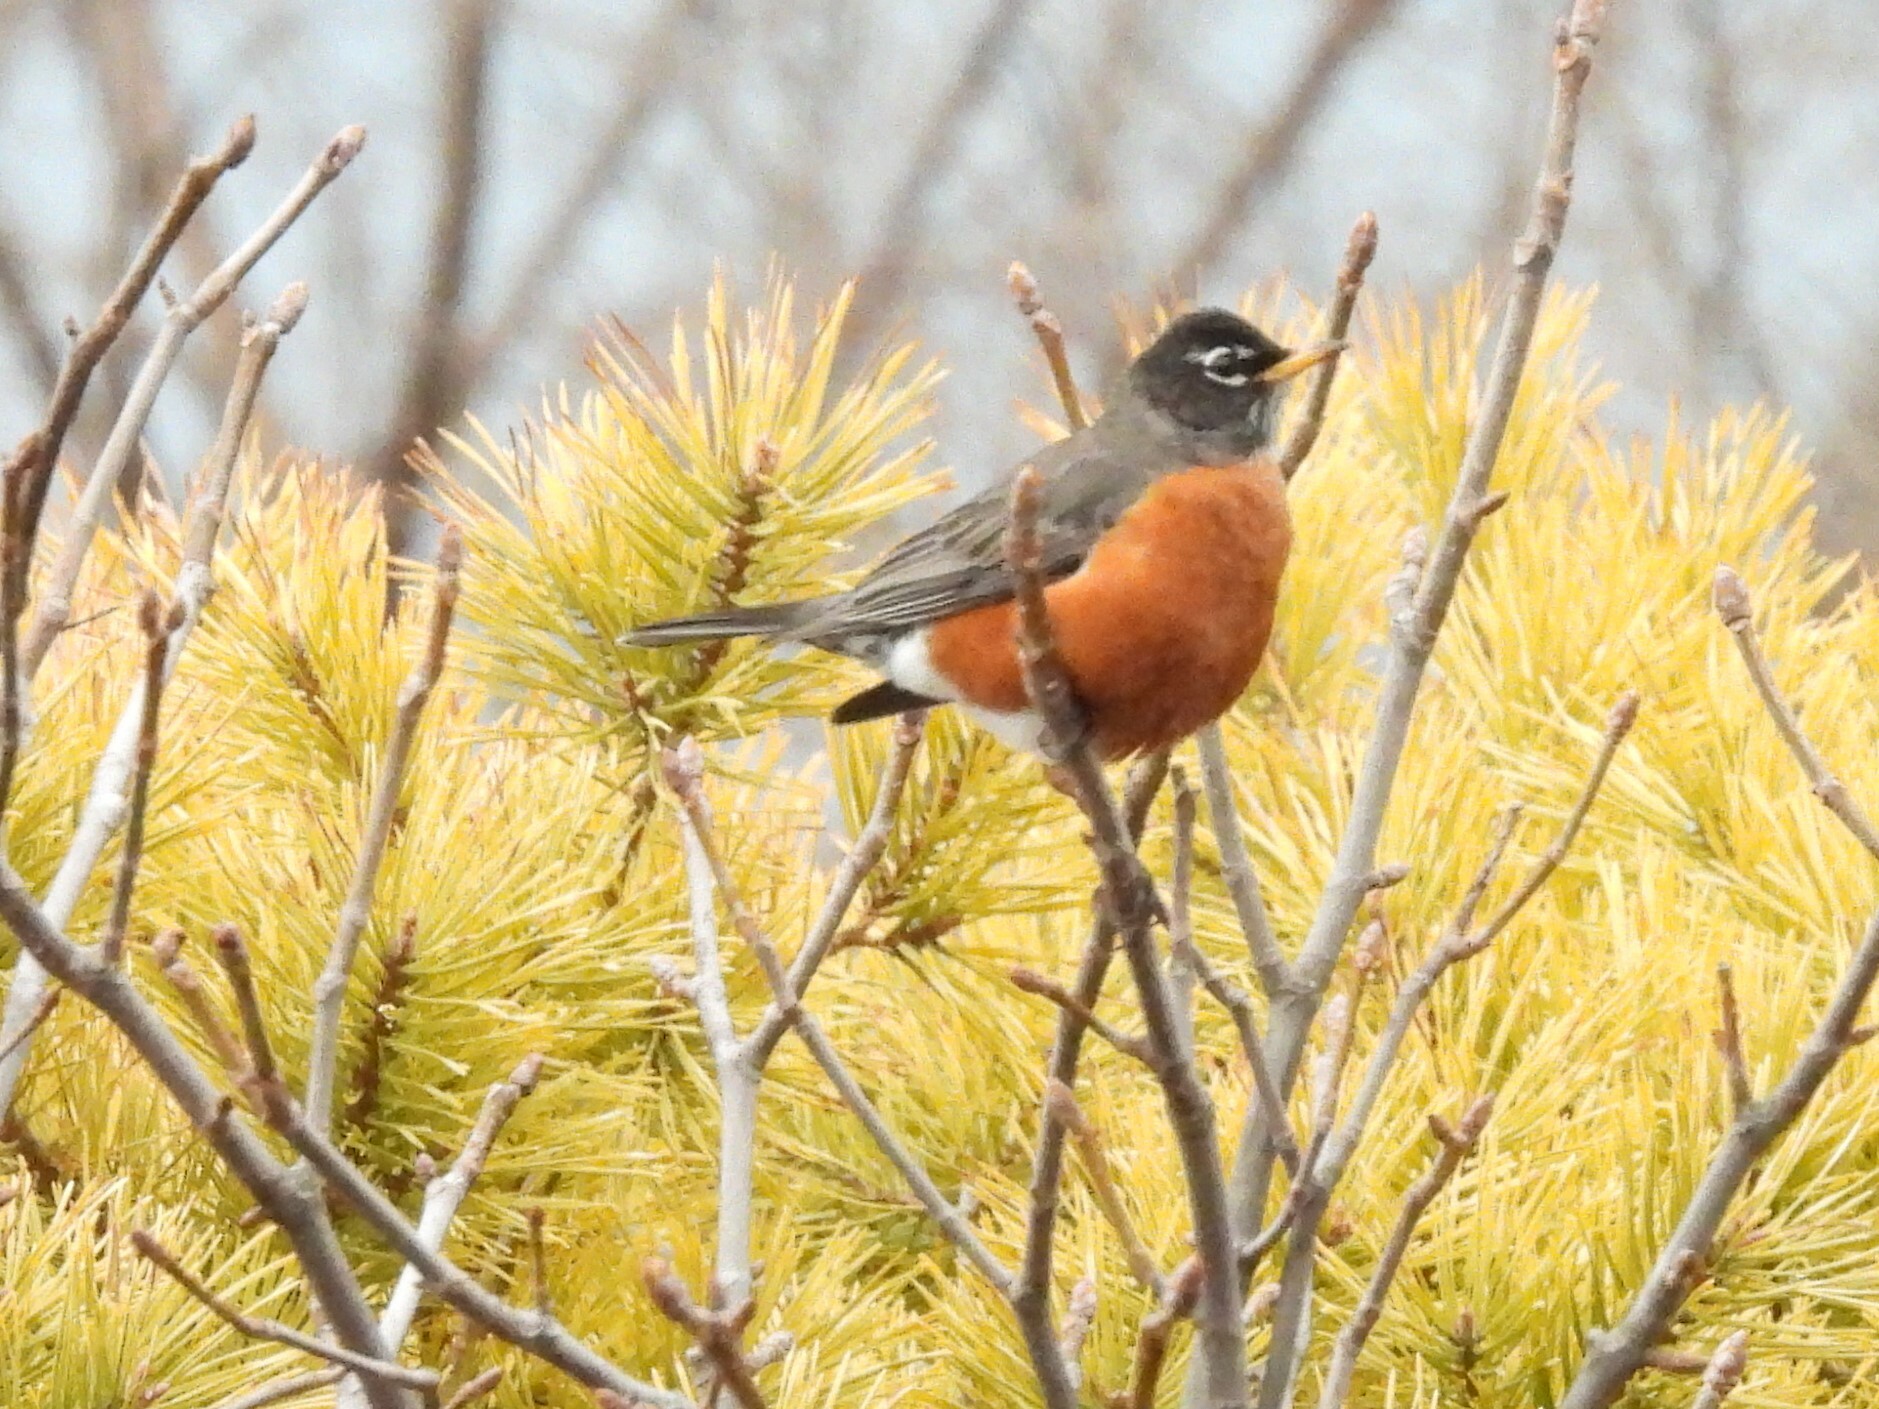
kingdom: Animalia
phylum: Chordata
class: Aves
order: Passeriformes
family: Turdidae
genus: Turdus
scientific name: Turdus migratorius
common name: American robin
